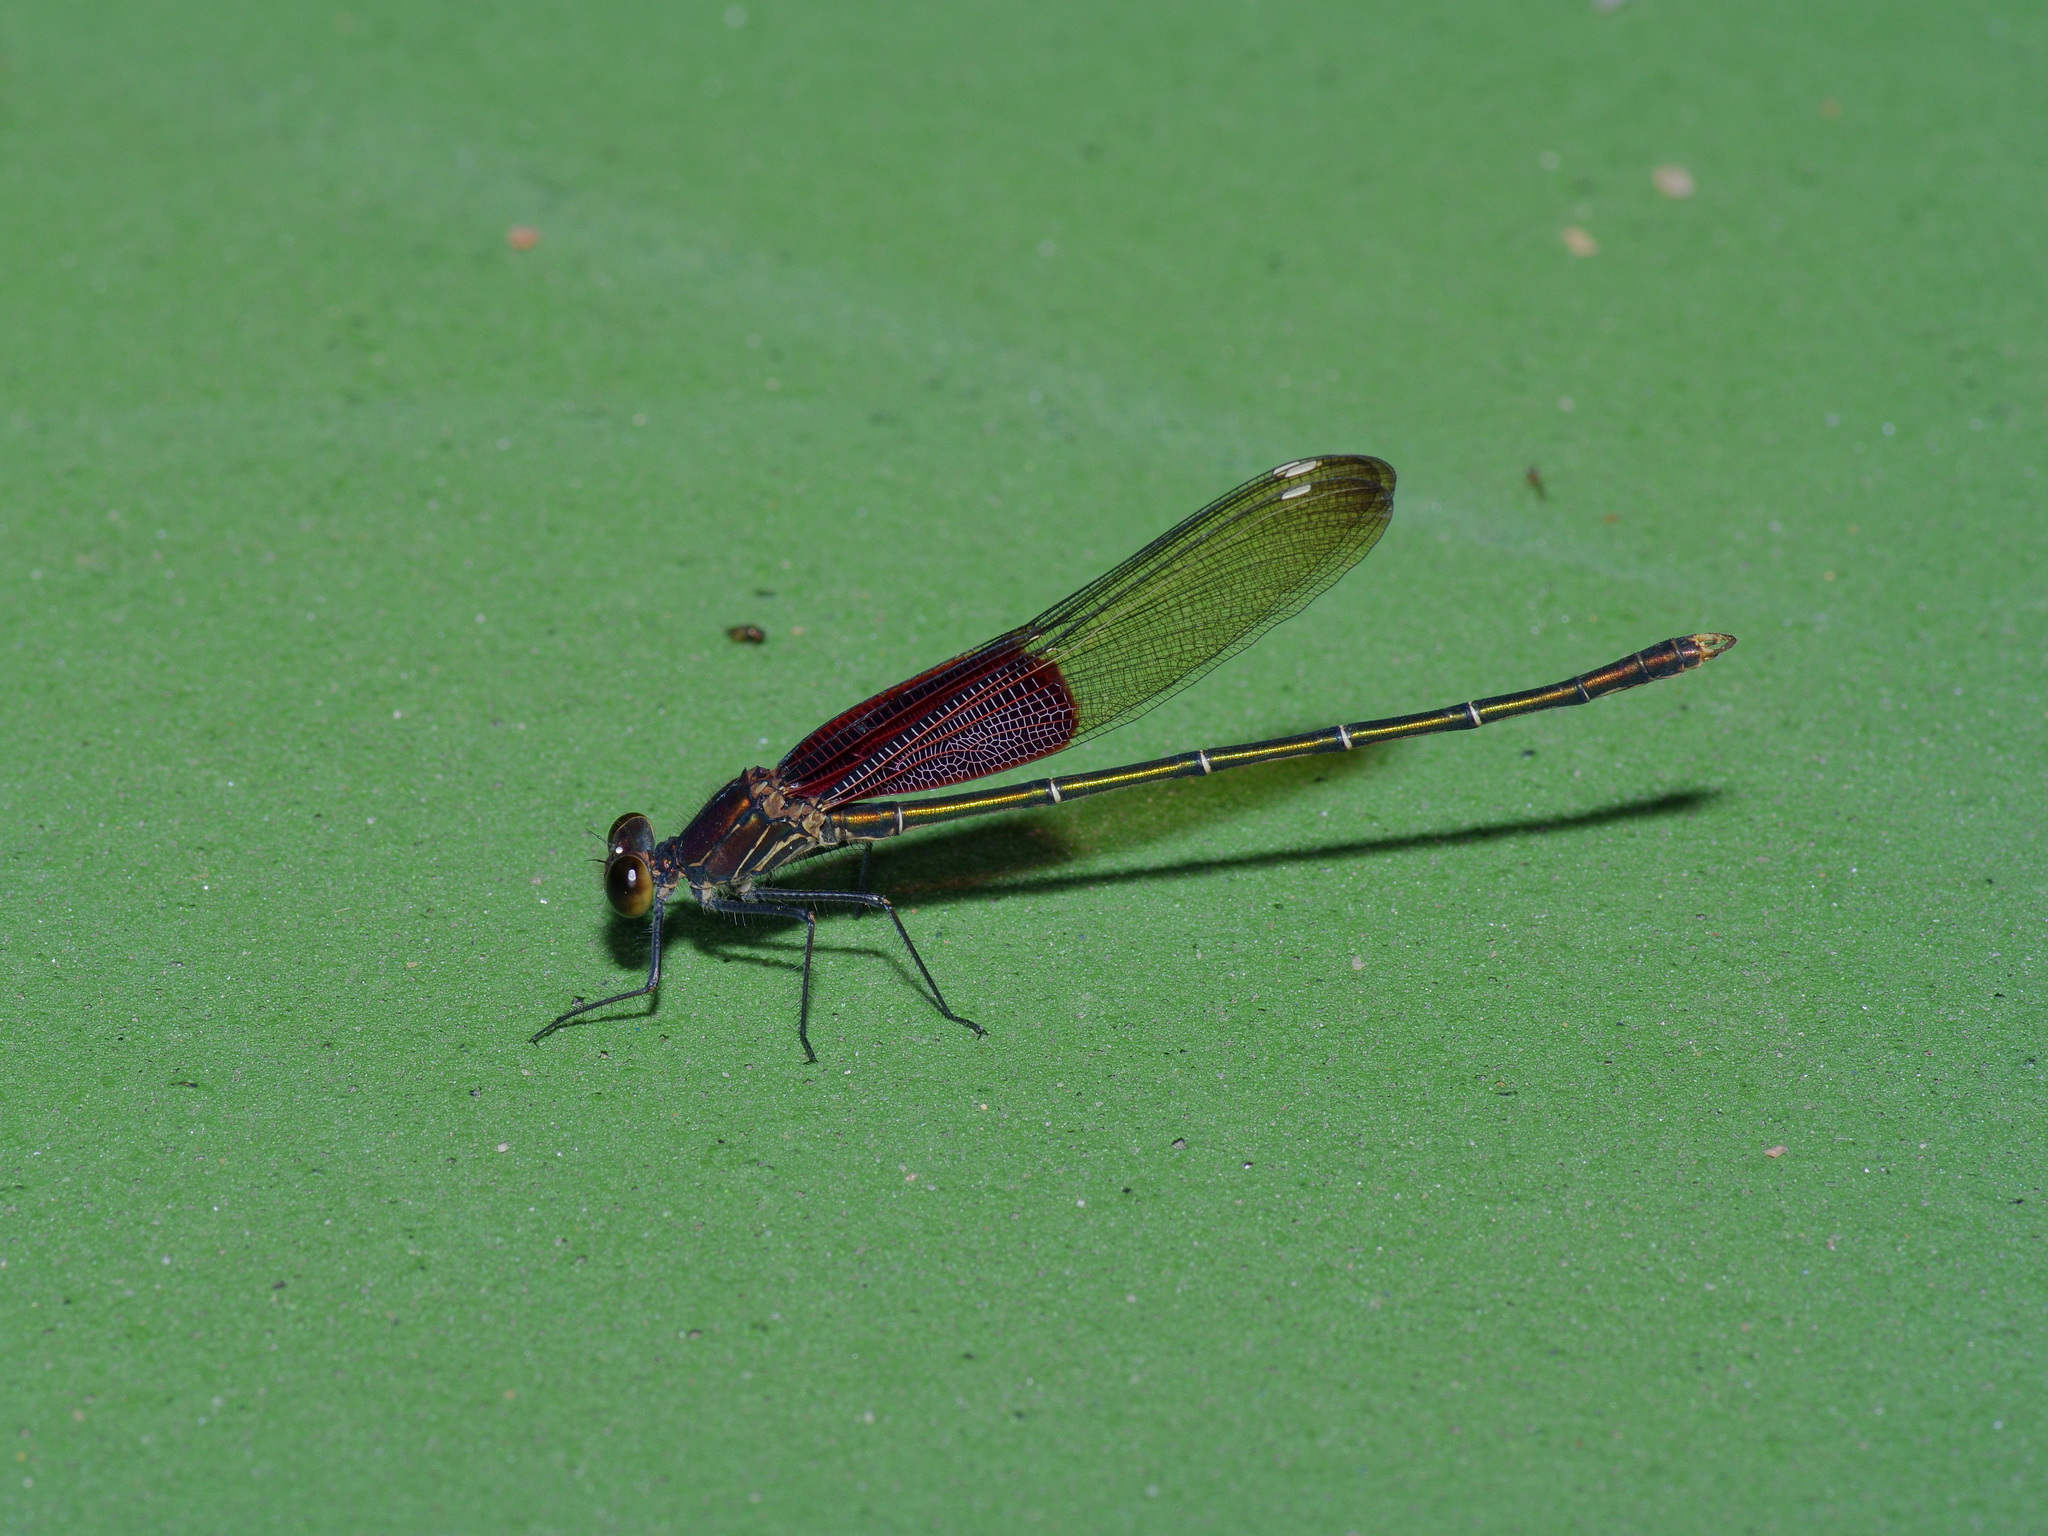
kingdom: Animalia
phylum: Arthropoda
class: Insecta
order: Odonata
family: Calopterygidae
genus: Hetaerina
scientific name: Hetaerina americana
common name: American rubyspot
